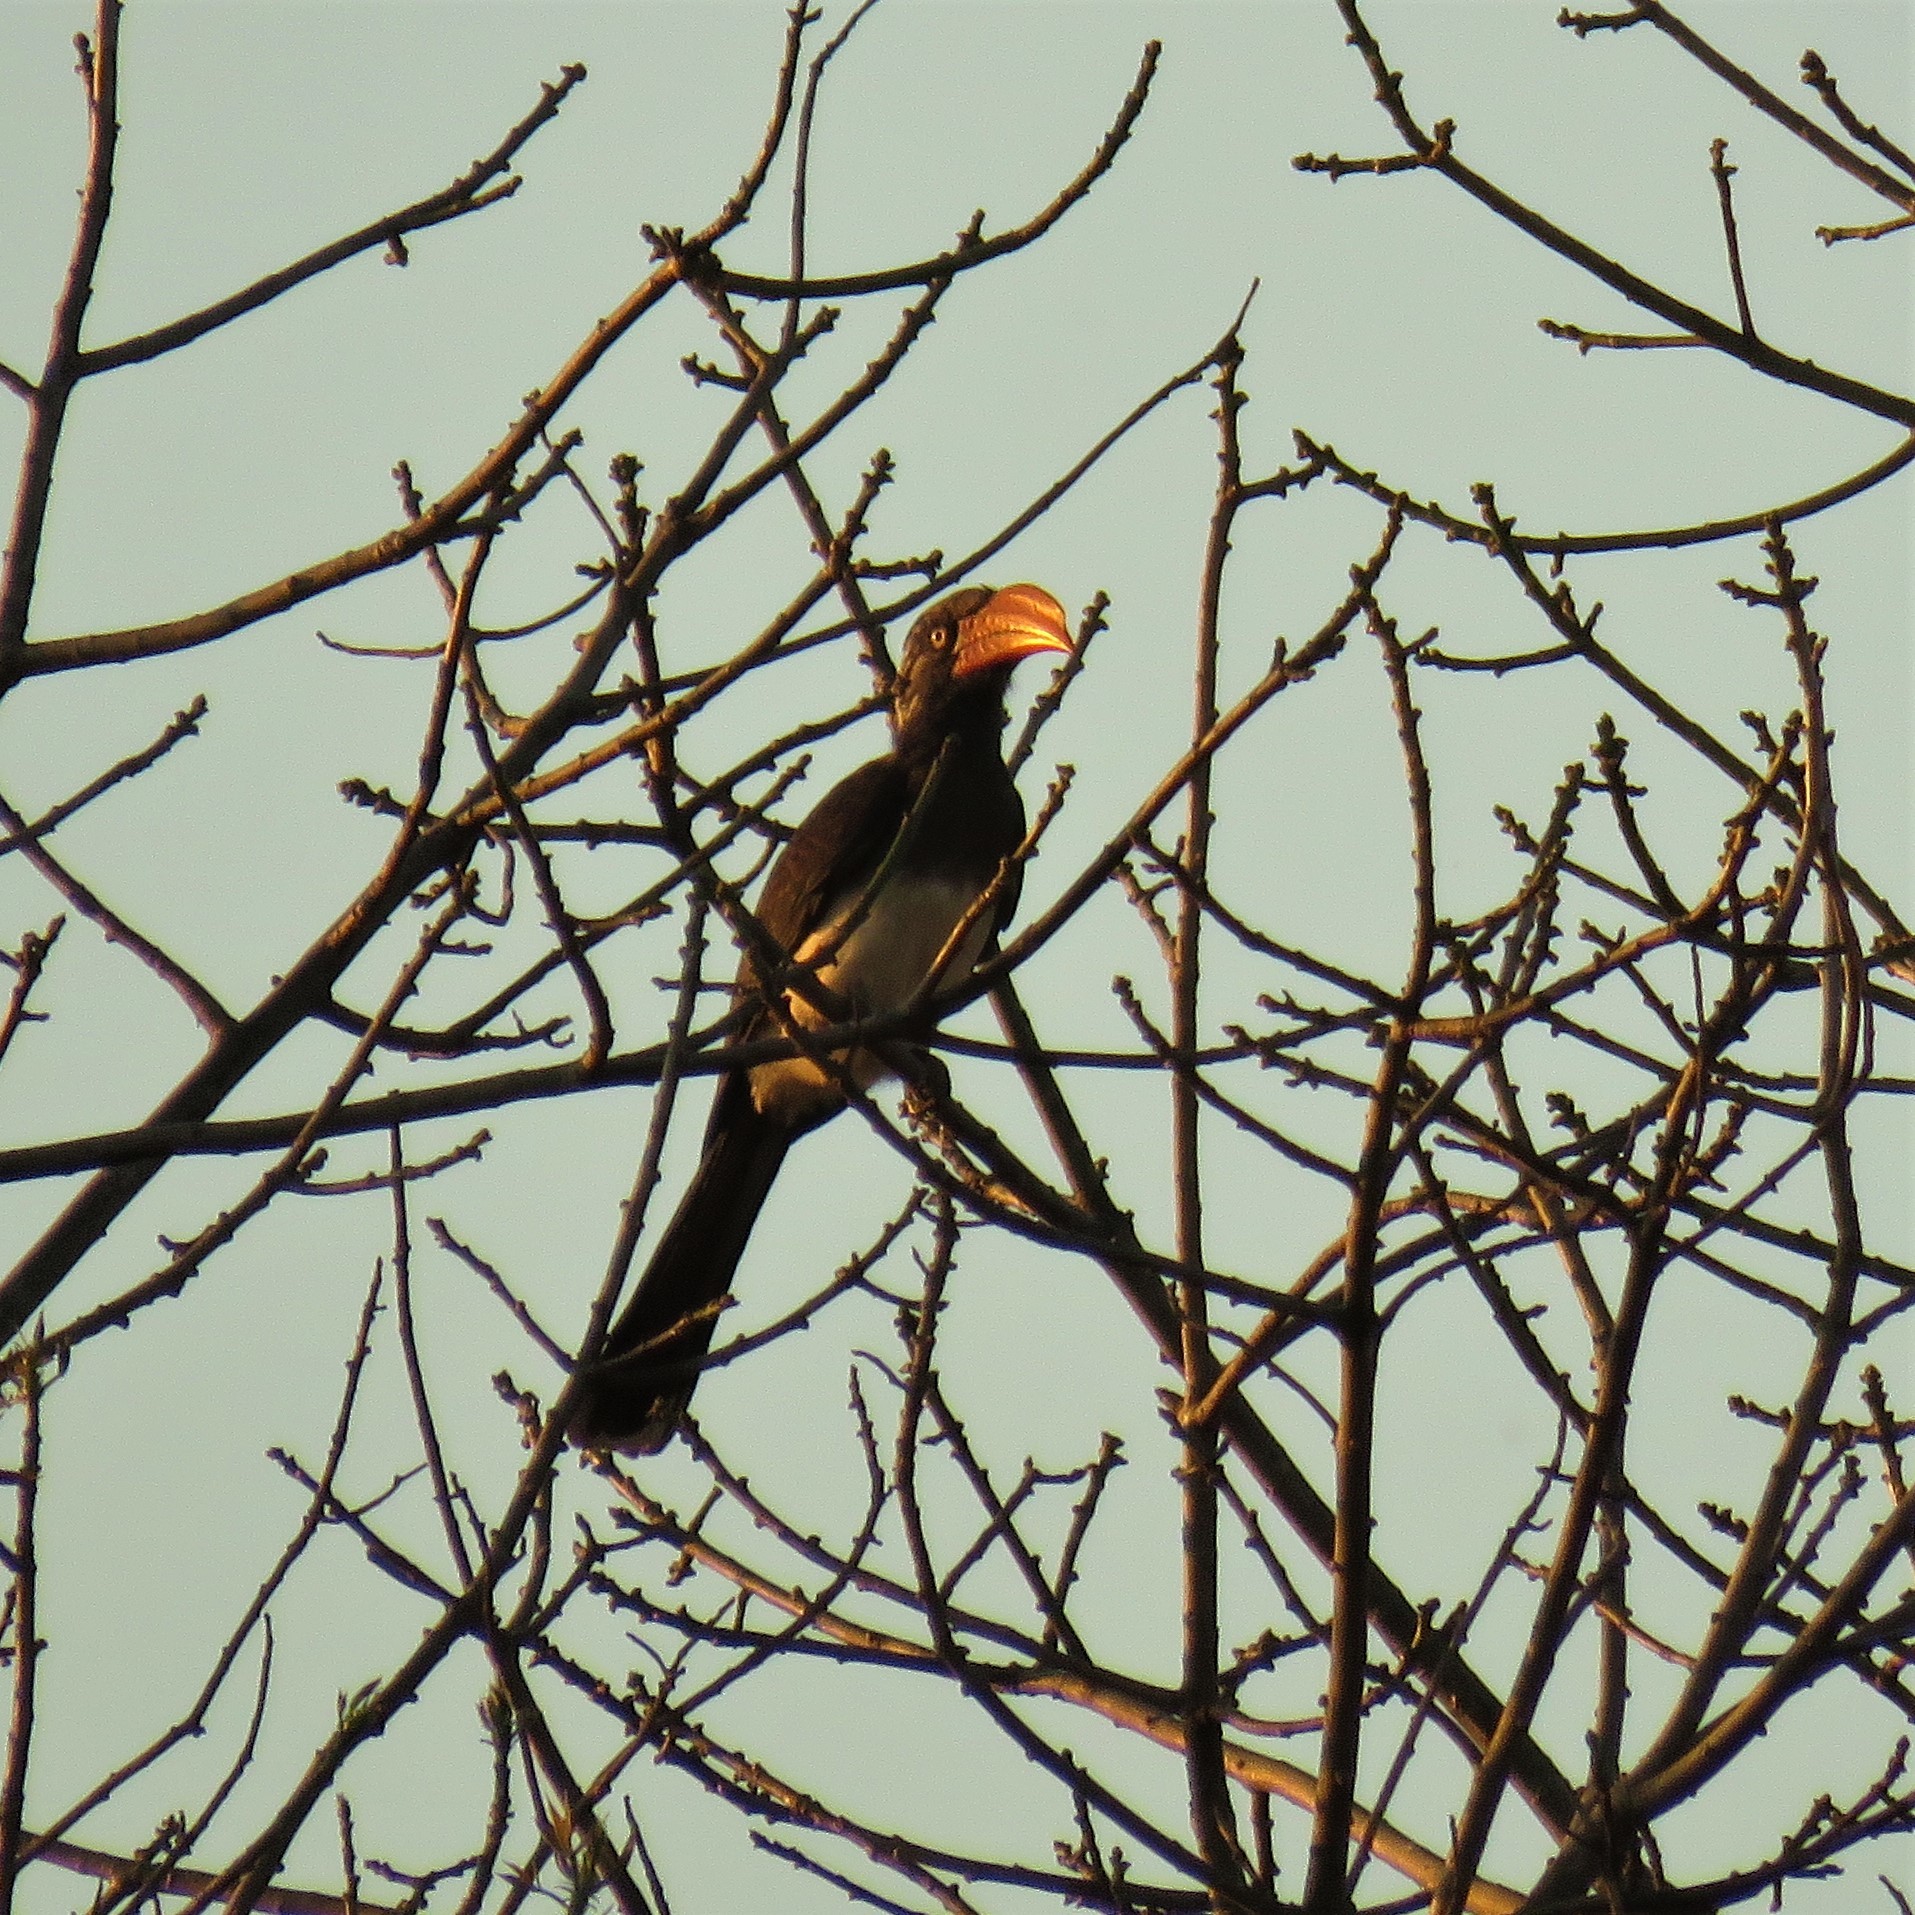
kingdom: Animalia
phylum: Chordata
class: Aves
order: Bucerotiformes
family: Bucerotidae
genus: Lophoceros
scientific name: Lophoceros alboterminatus
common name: Crowned hornbill
